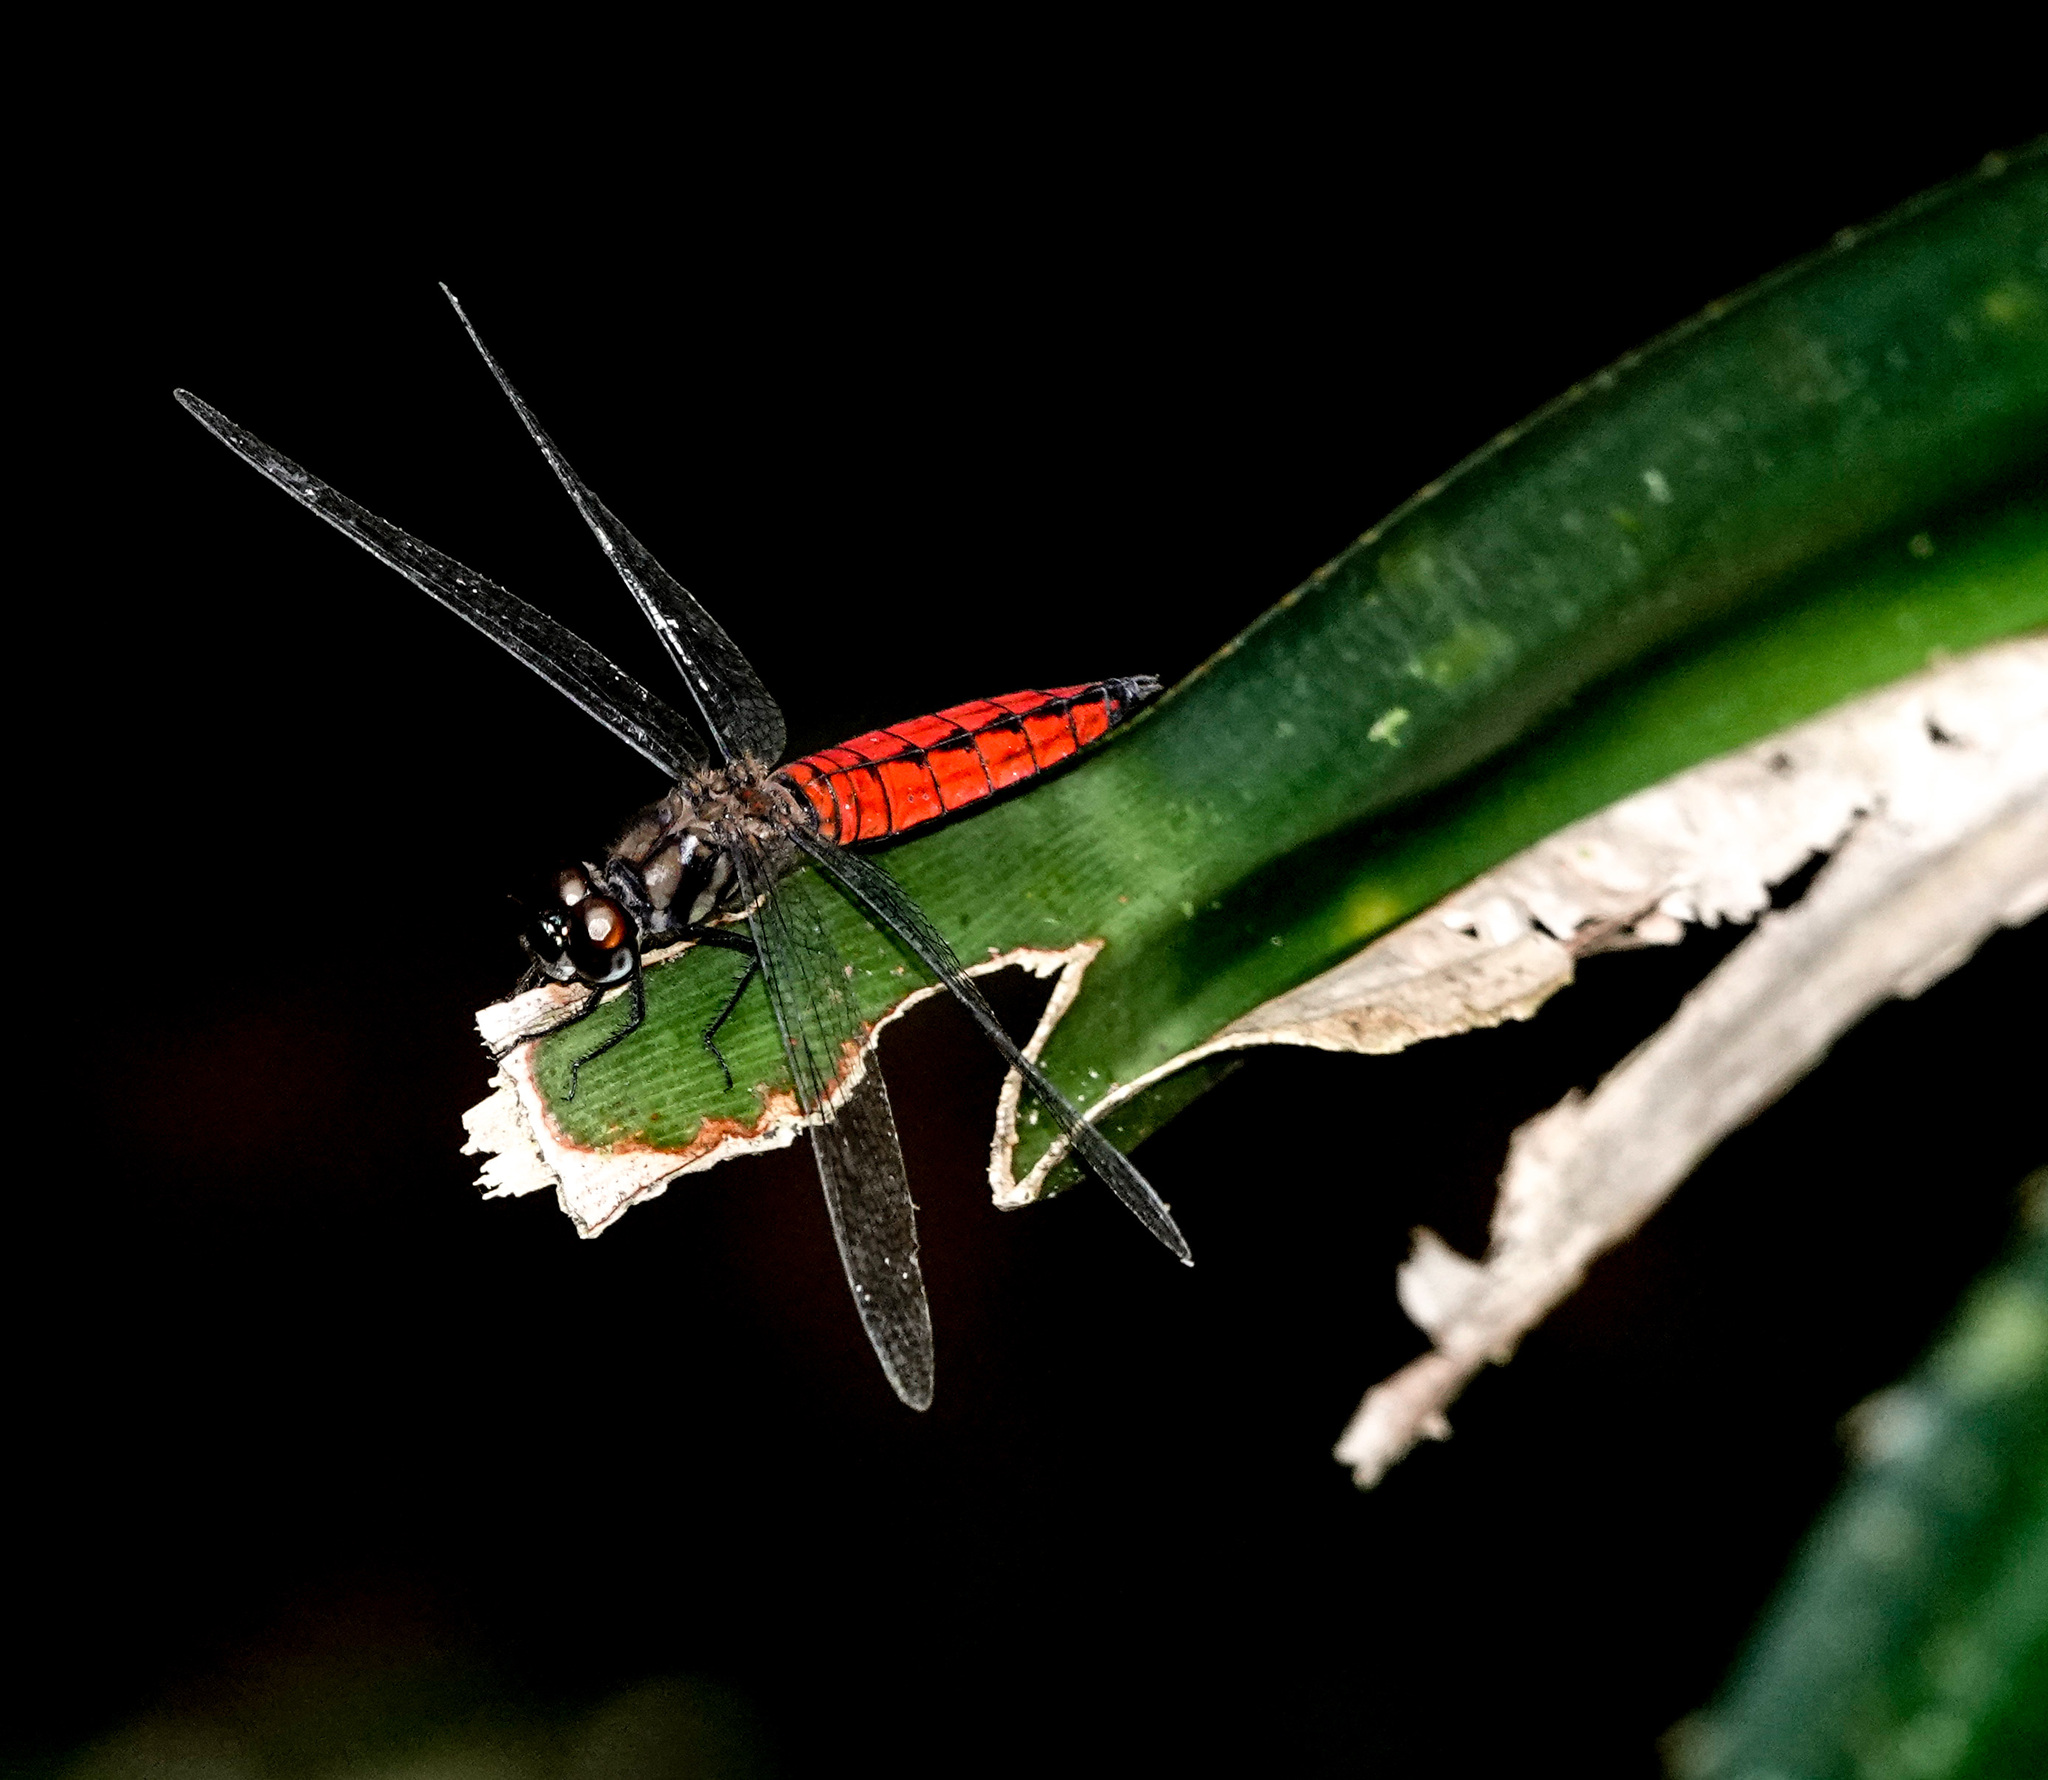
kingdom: Animalia
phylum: Arthropoda
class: Insecta
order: Odonata
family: Libellulidae
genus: Lyriothemis
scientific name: Lyriothemis elegantissima
